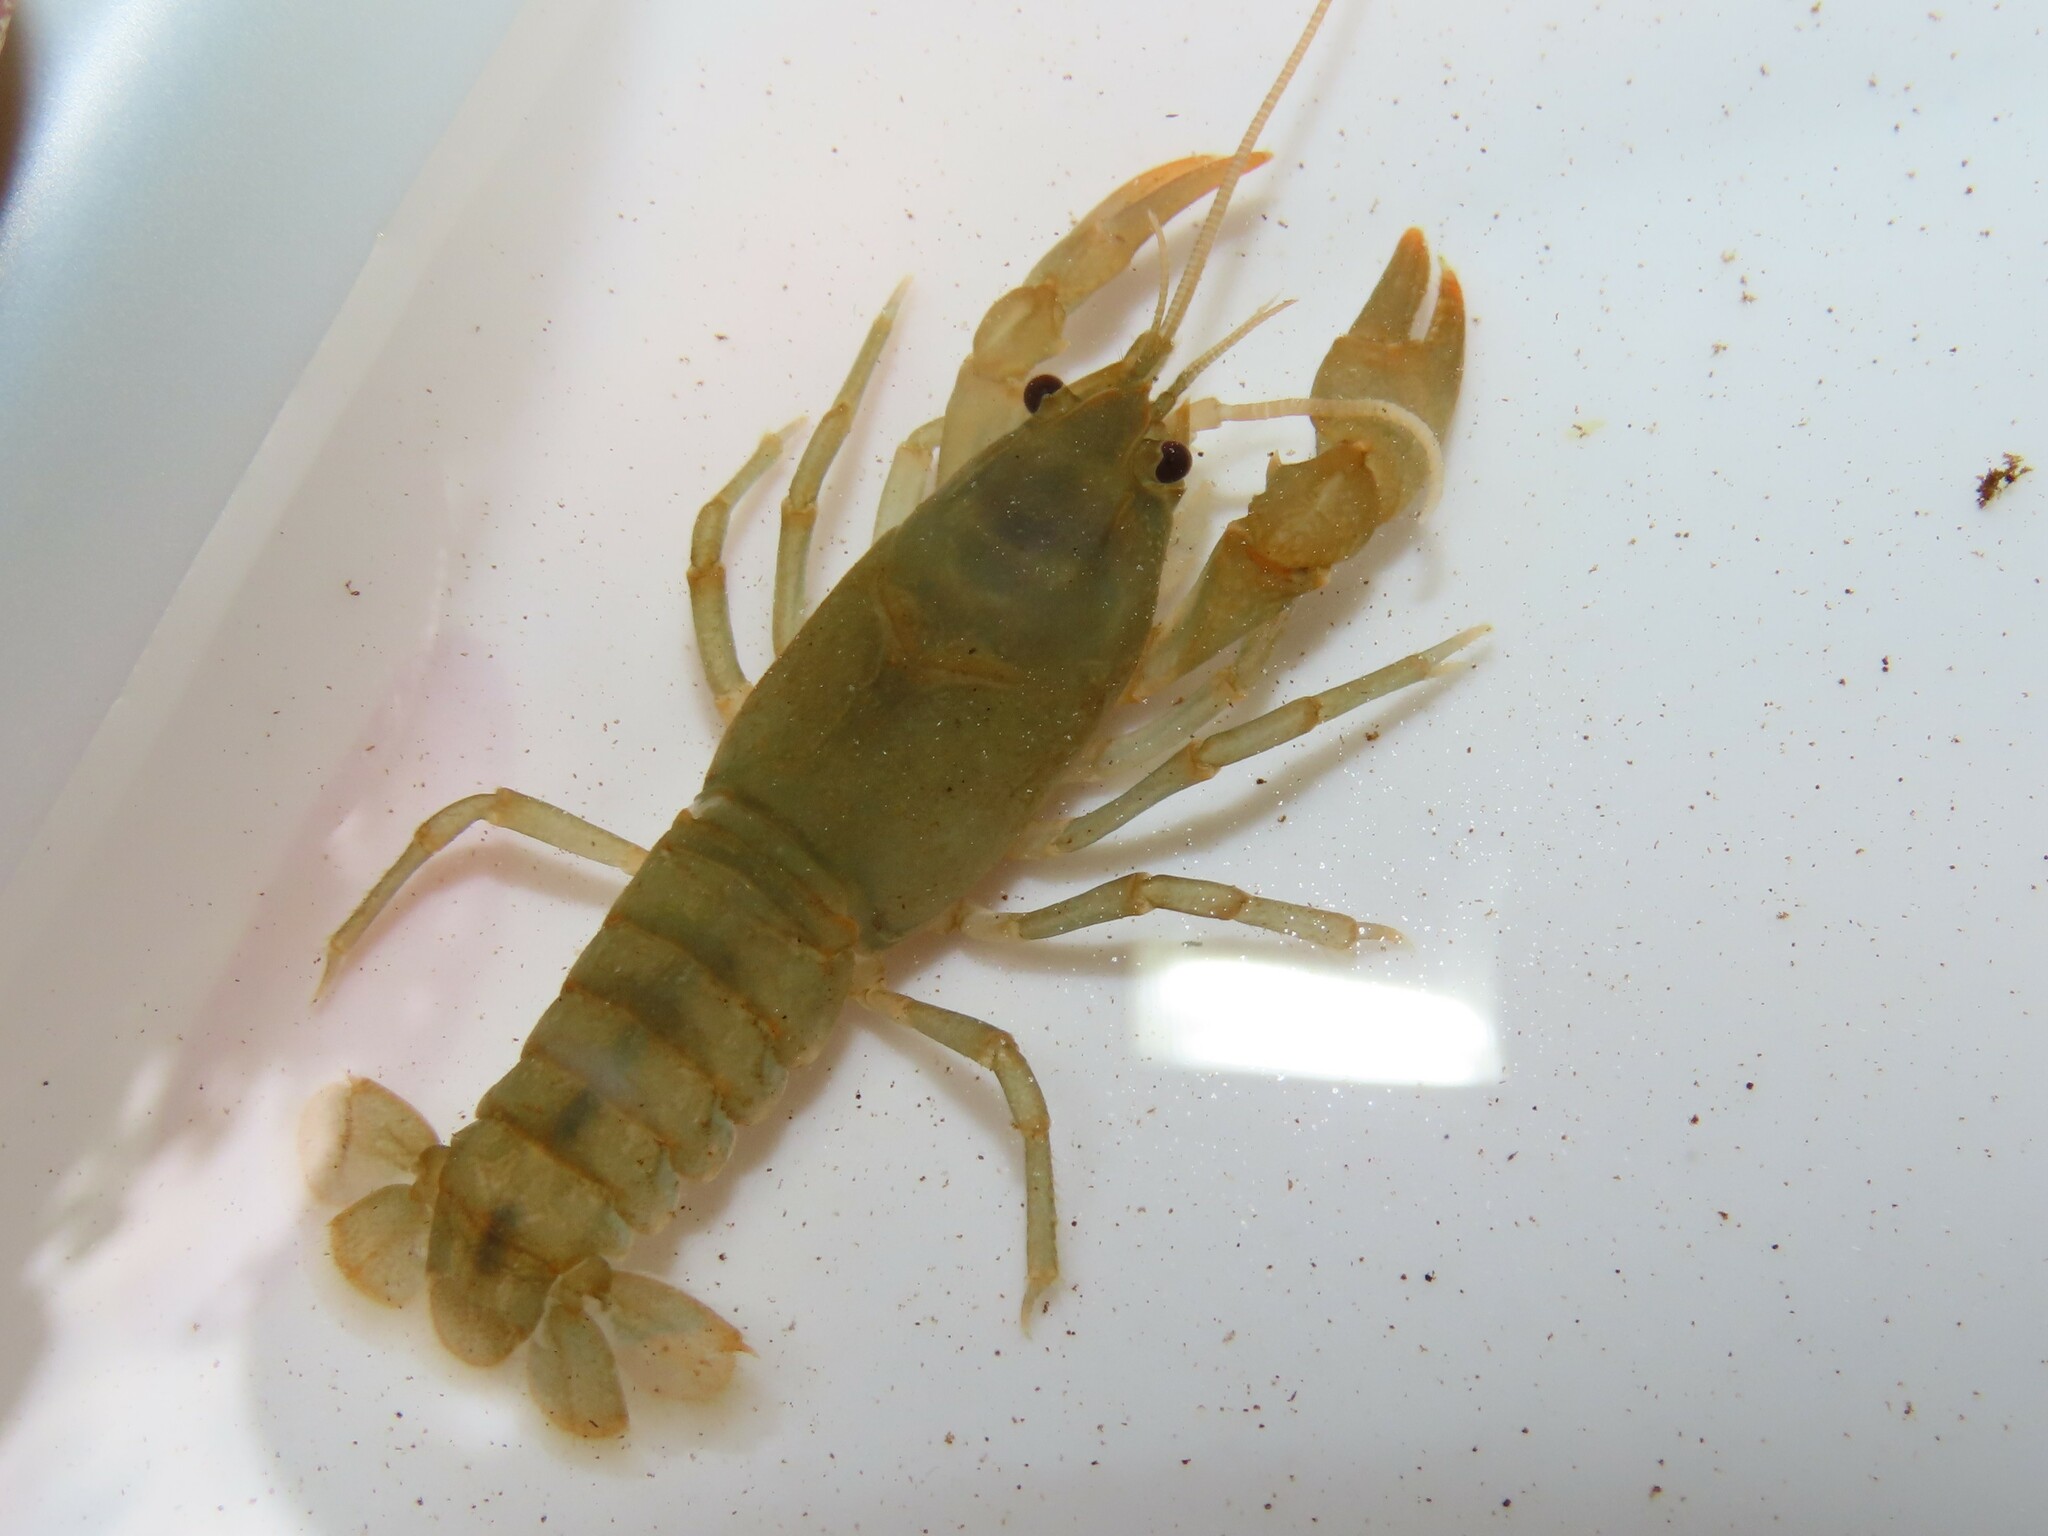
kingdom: Animalia
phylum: Arthropoda
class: Malacostraca
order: Decapoda
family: Cambaridae
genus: Cambarus
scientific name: Cambarus bartonii
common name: Appalachian brook crayfish
